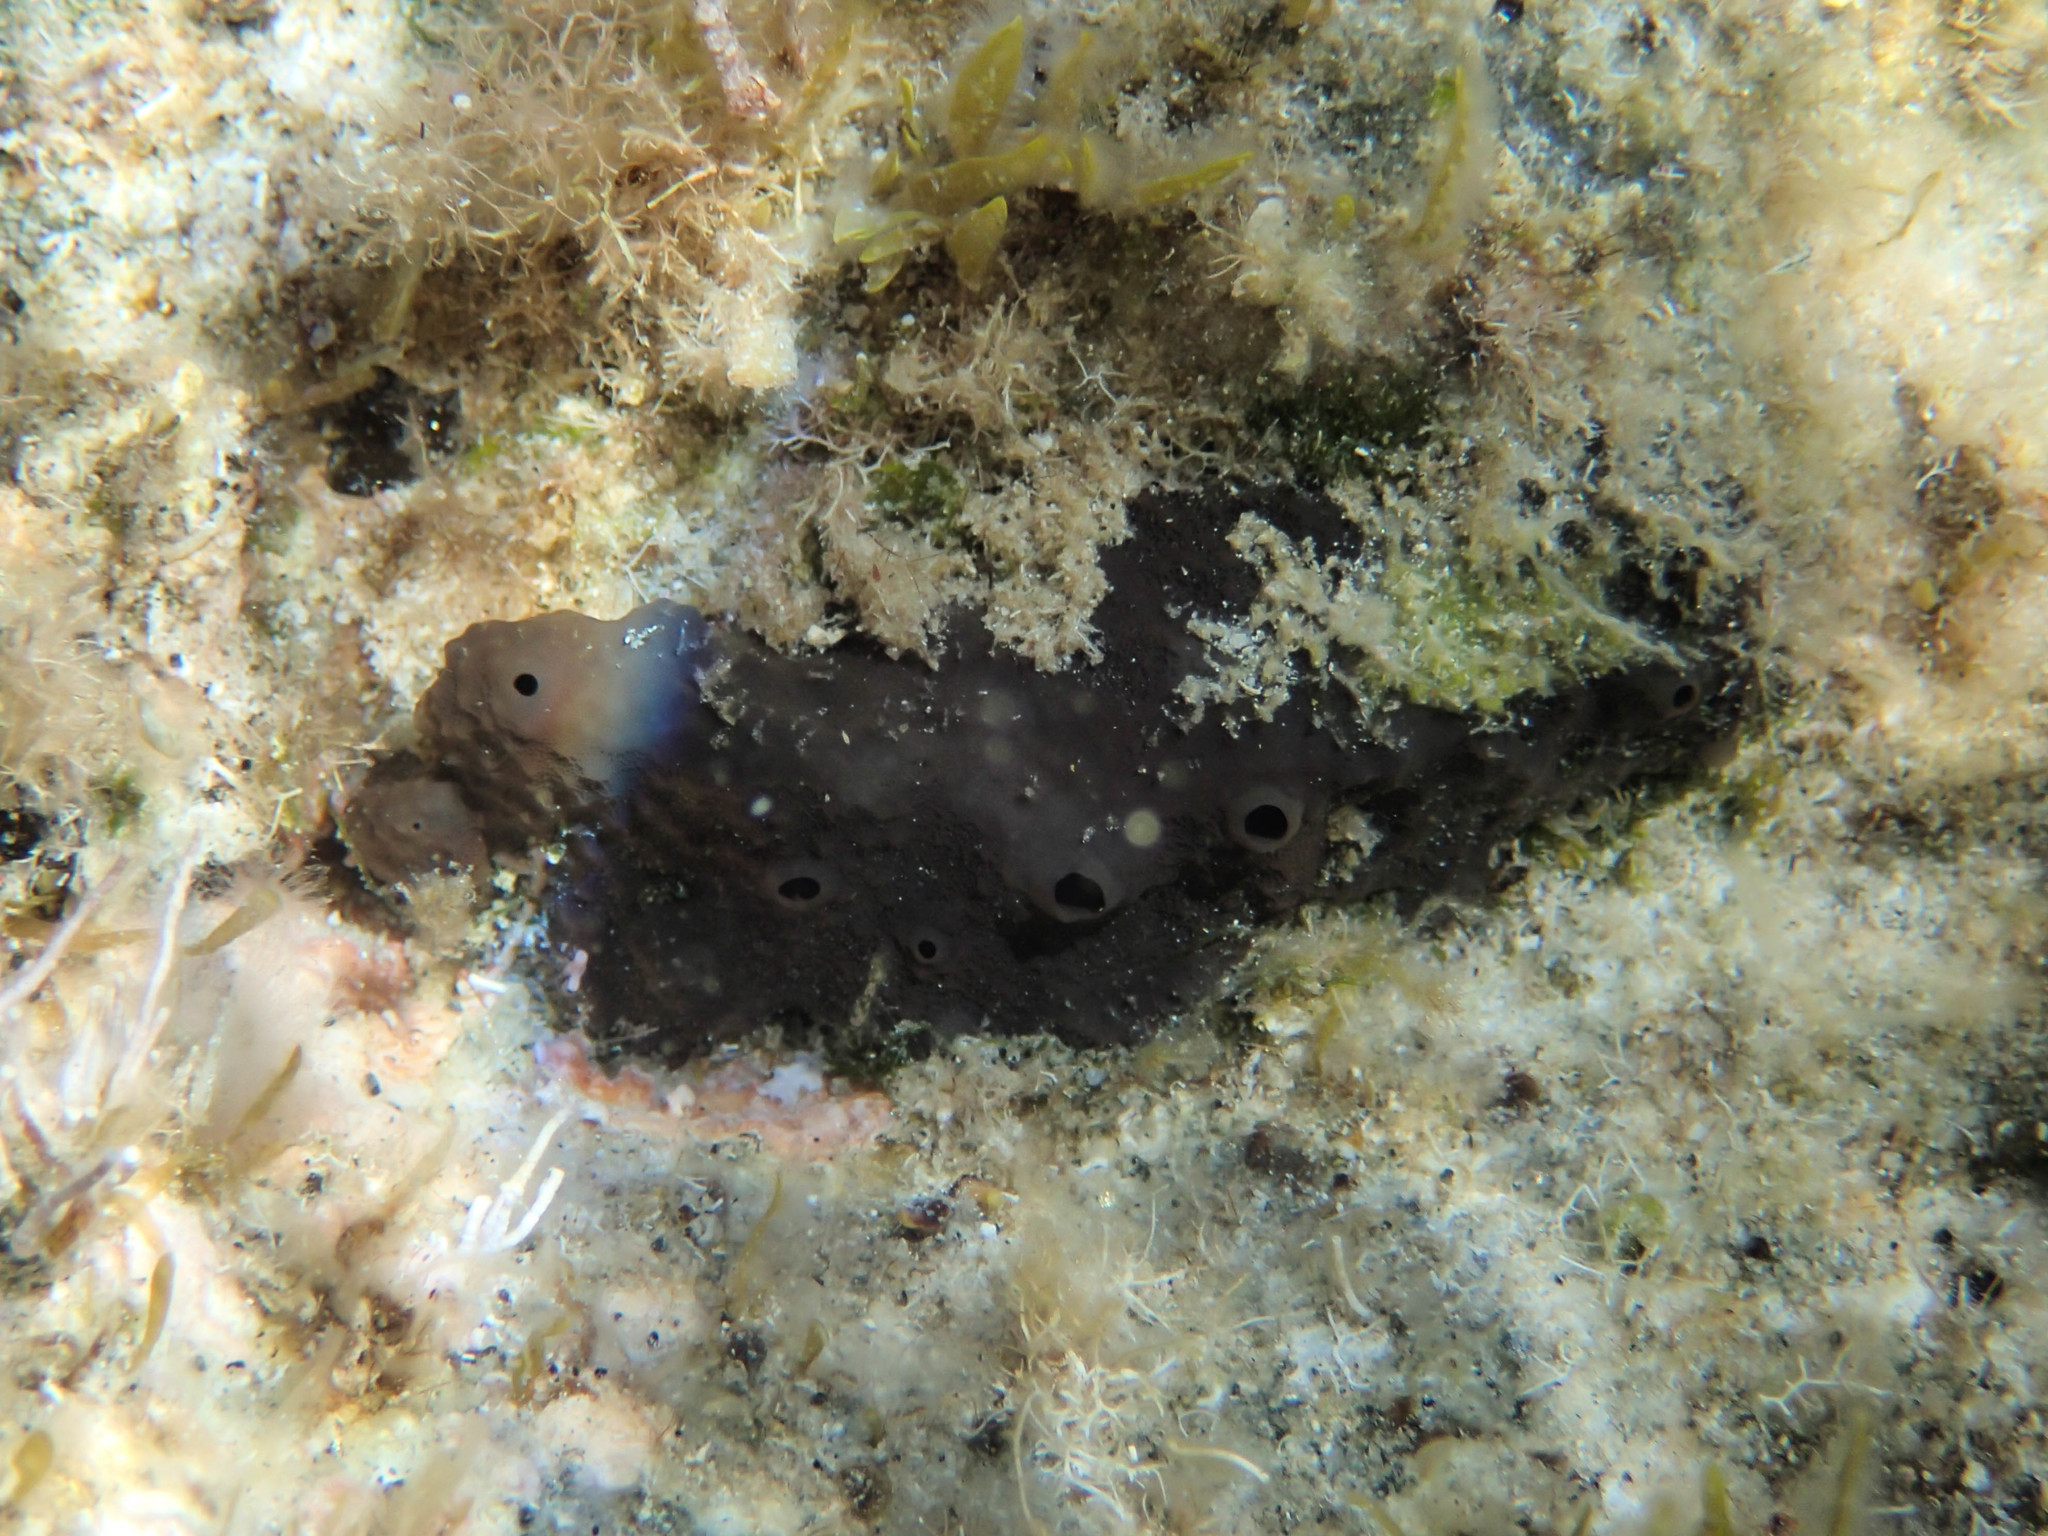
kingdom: Animalia
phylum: Porifera
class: Demospongiae
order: Dictyoceratida
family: Irciniidae
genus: Sarcotragus
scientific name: Sarcotragus spinosulus
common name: Black leather sponge
